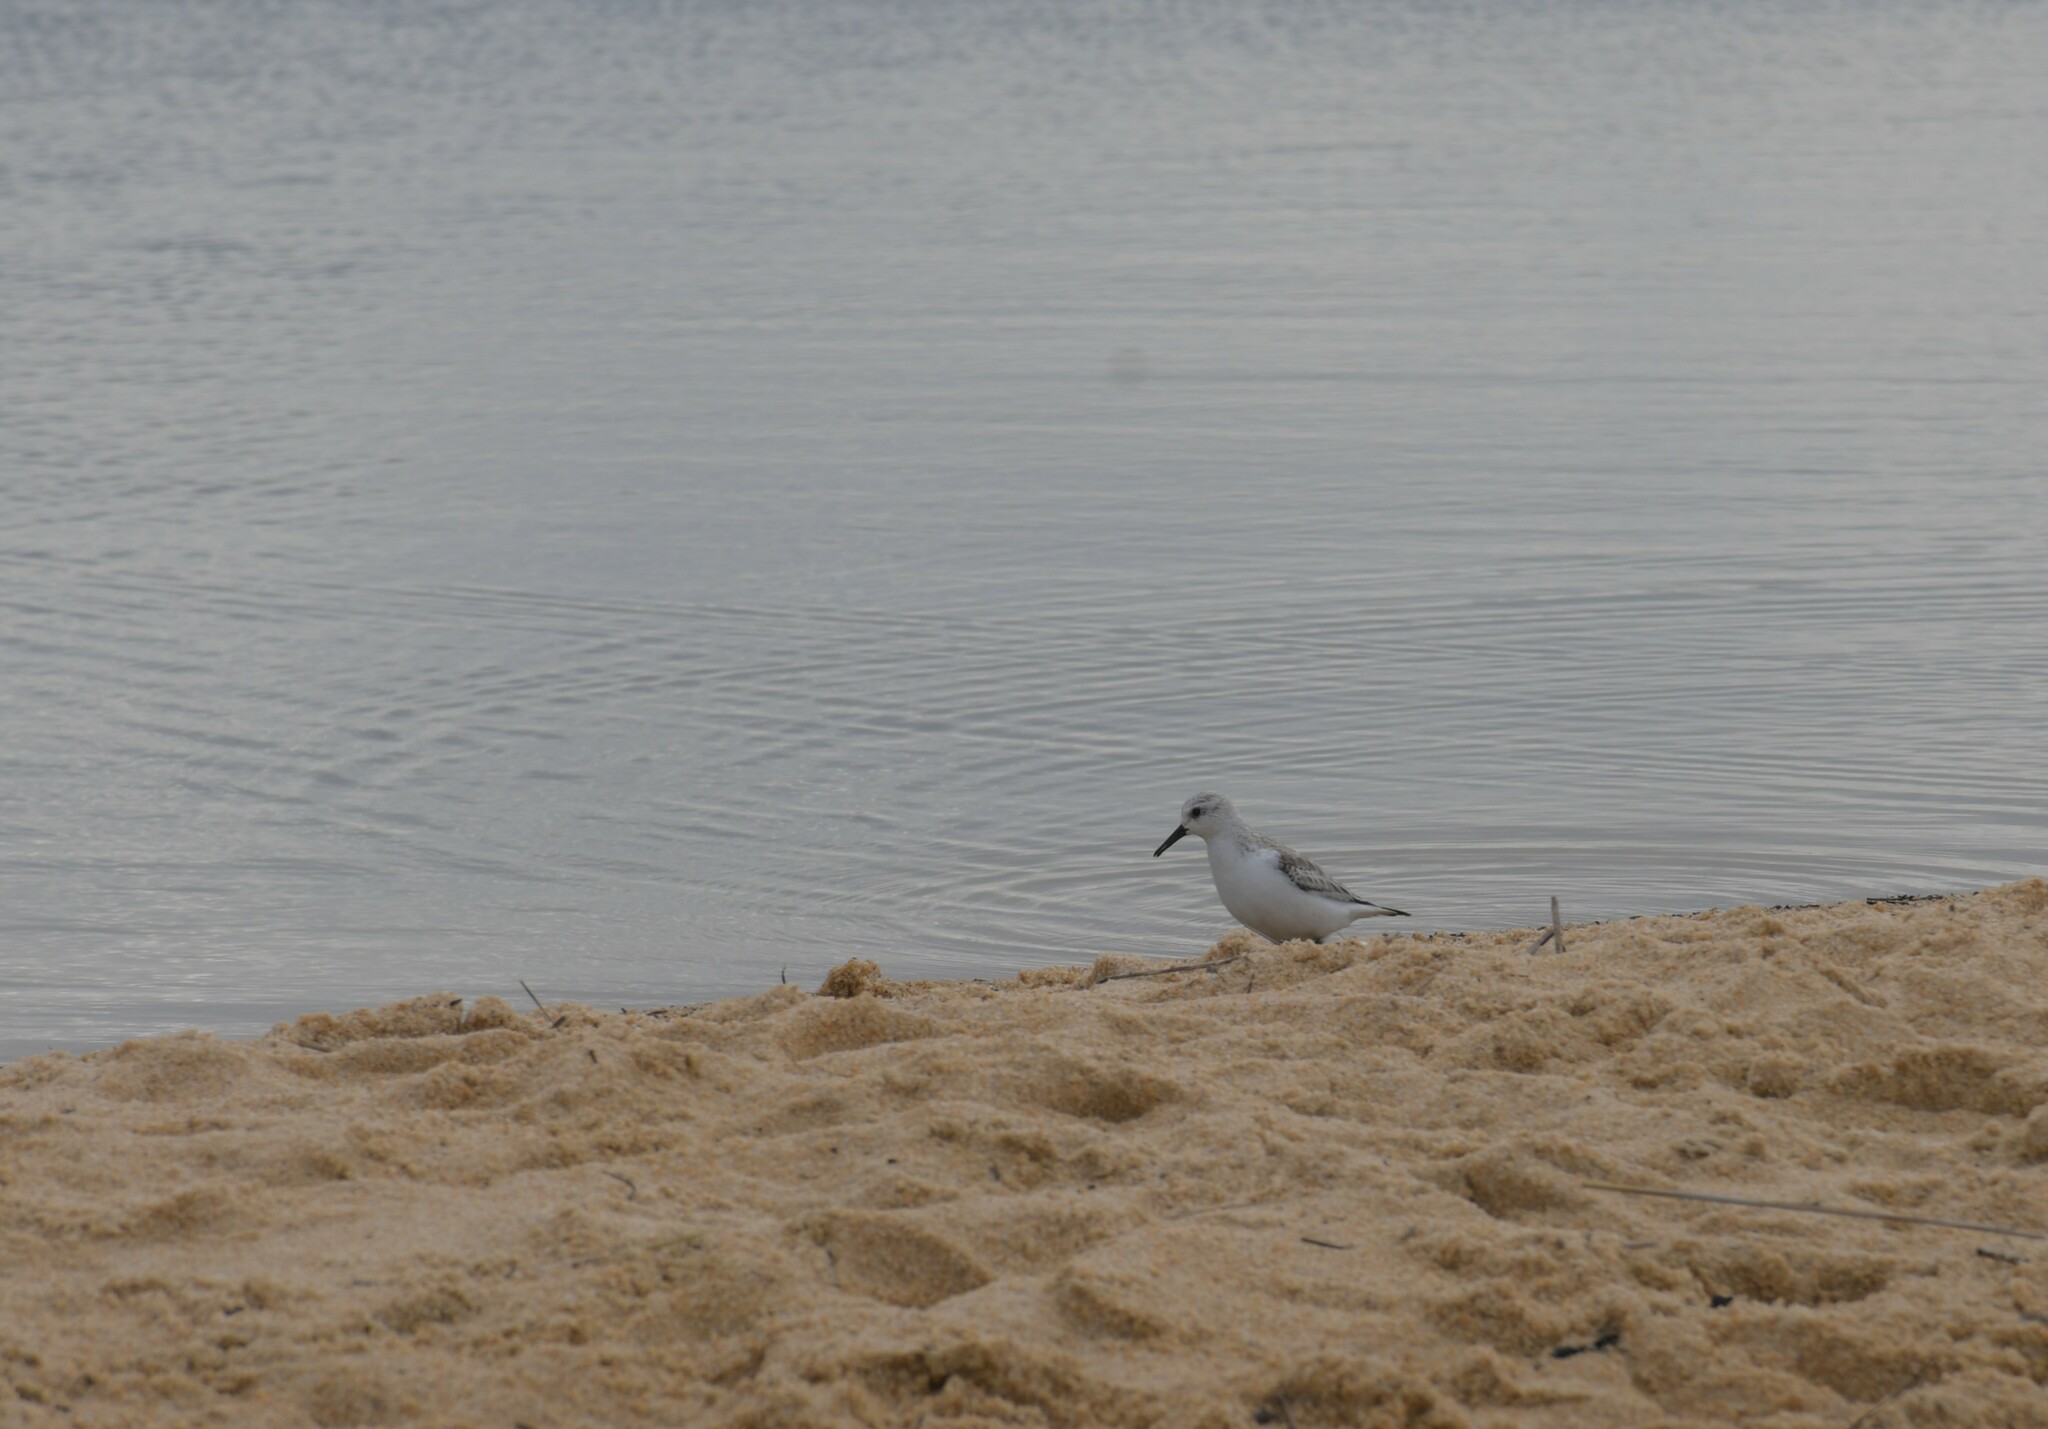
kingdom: Animalia
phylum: Chordata
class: Aves
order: Charadriiformes
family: Scolopacidae
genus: Calidris
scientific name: Calidris alba
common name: Sanderling
